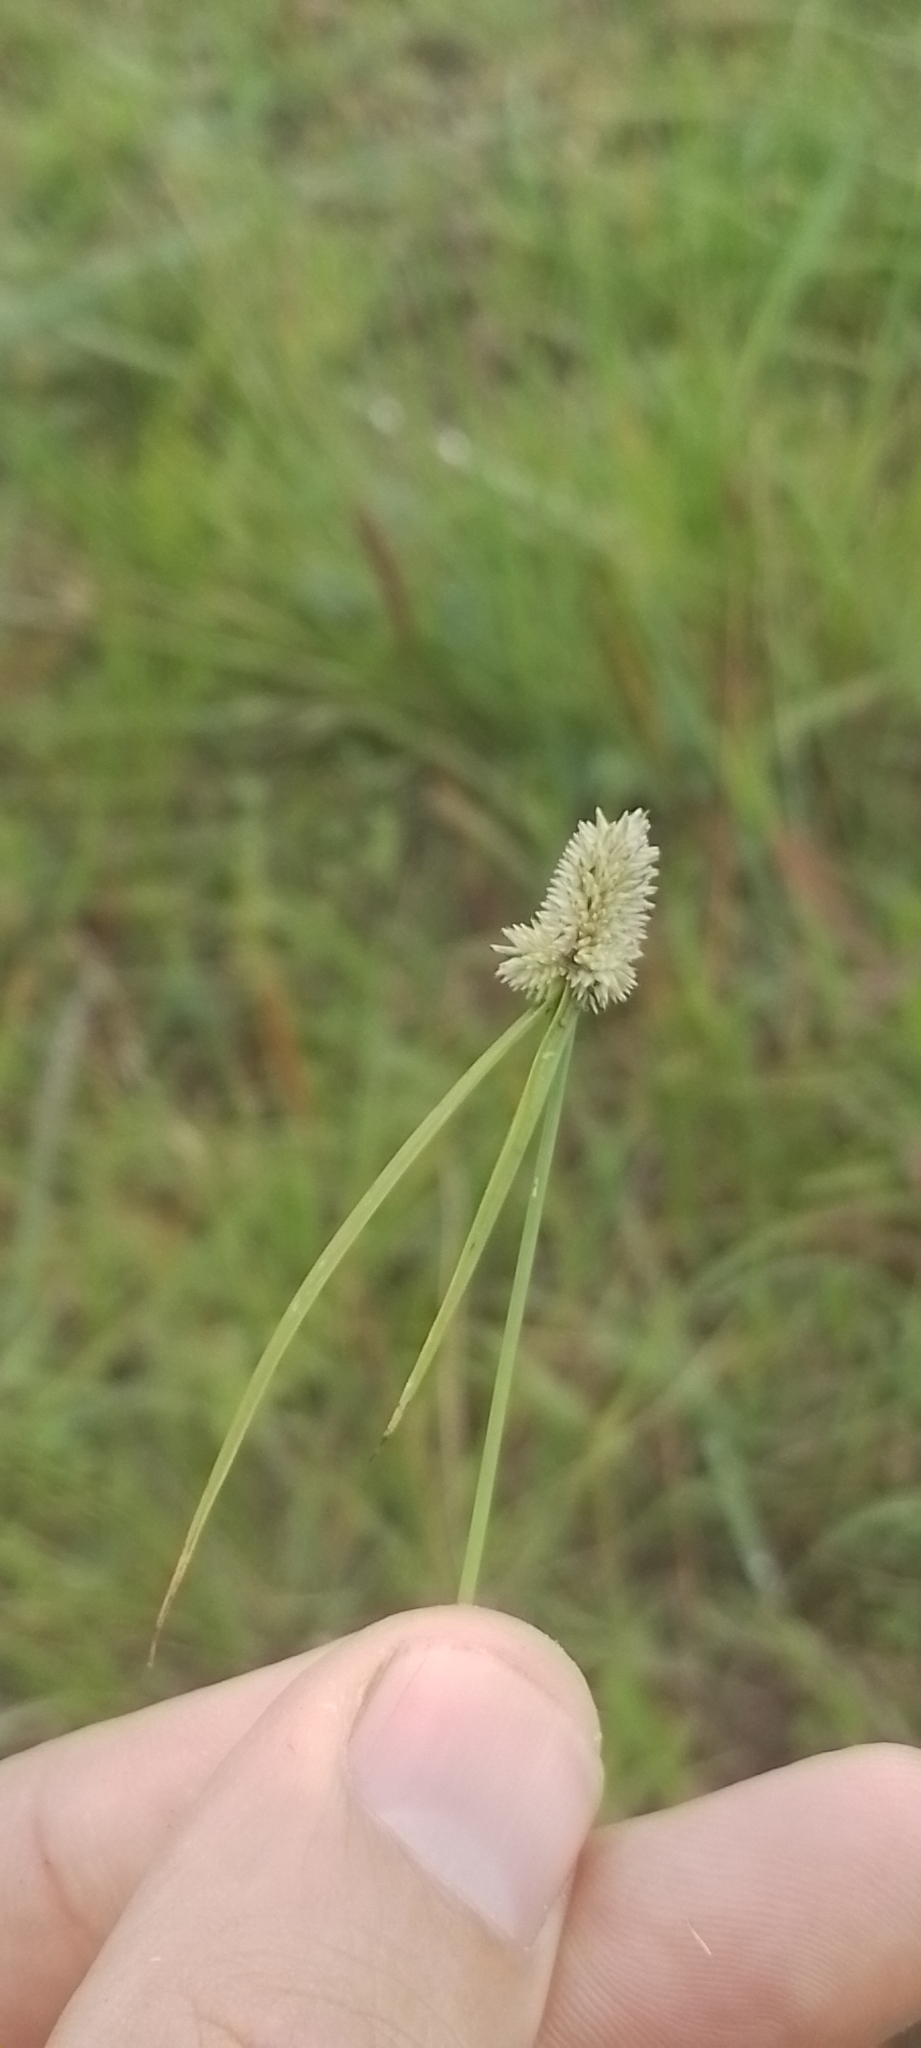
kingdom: Plantae
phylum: Tracheophyta
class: Liliopsida
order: Poales
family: Cyperaceae
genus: Cyperus
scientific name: Cyperus sesquiflorus
